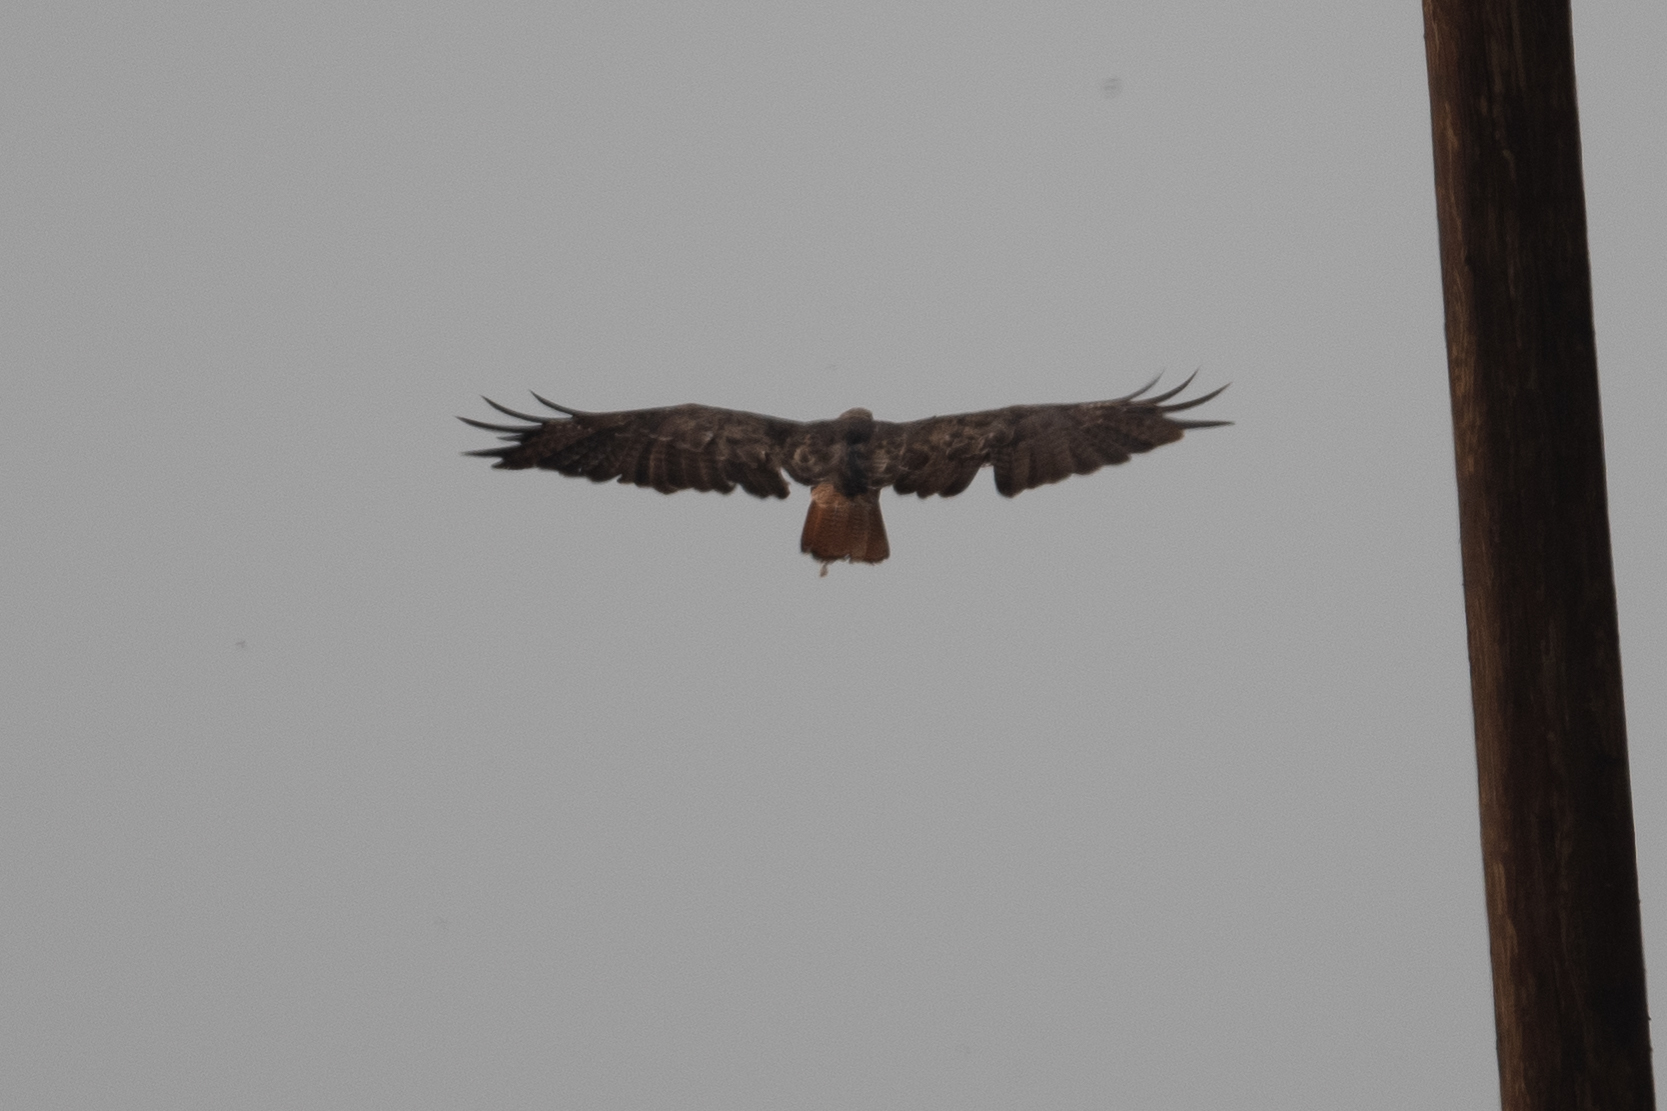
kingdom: Animalia
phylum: Chordata
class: Aves
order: Accipitriformes
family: Accipitridae
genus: Buteo
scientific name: Buteo jamaicensis
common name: Red-tailed hawk
